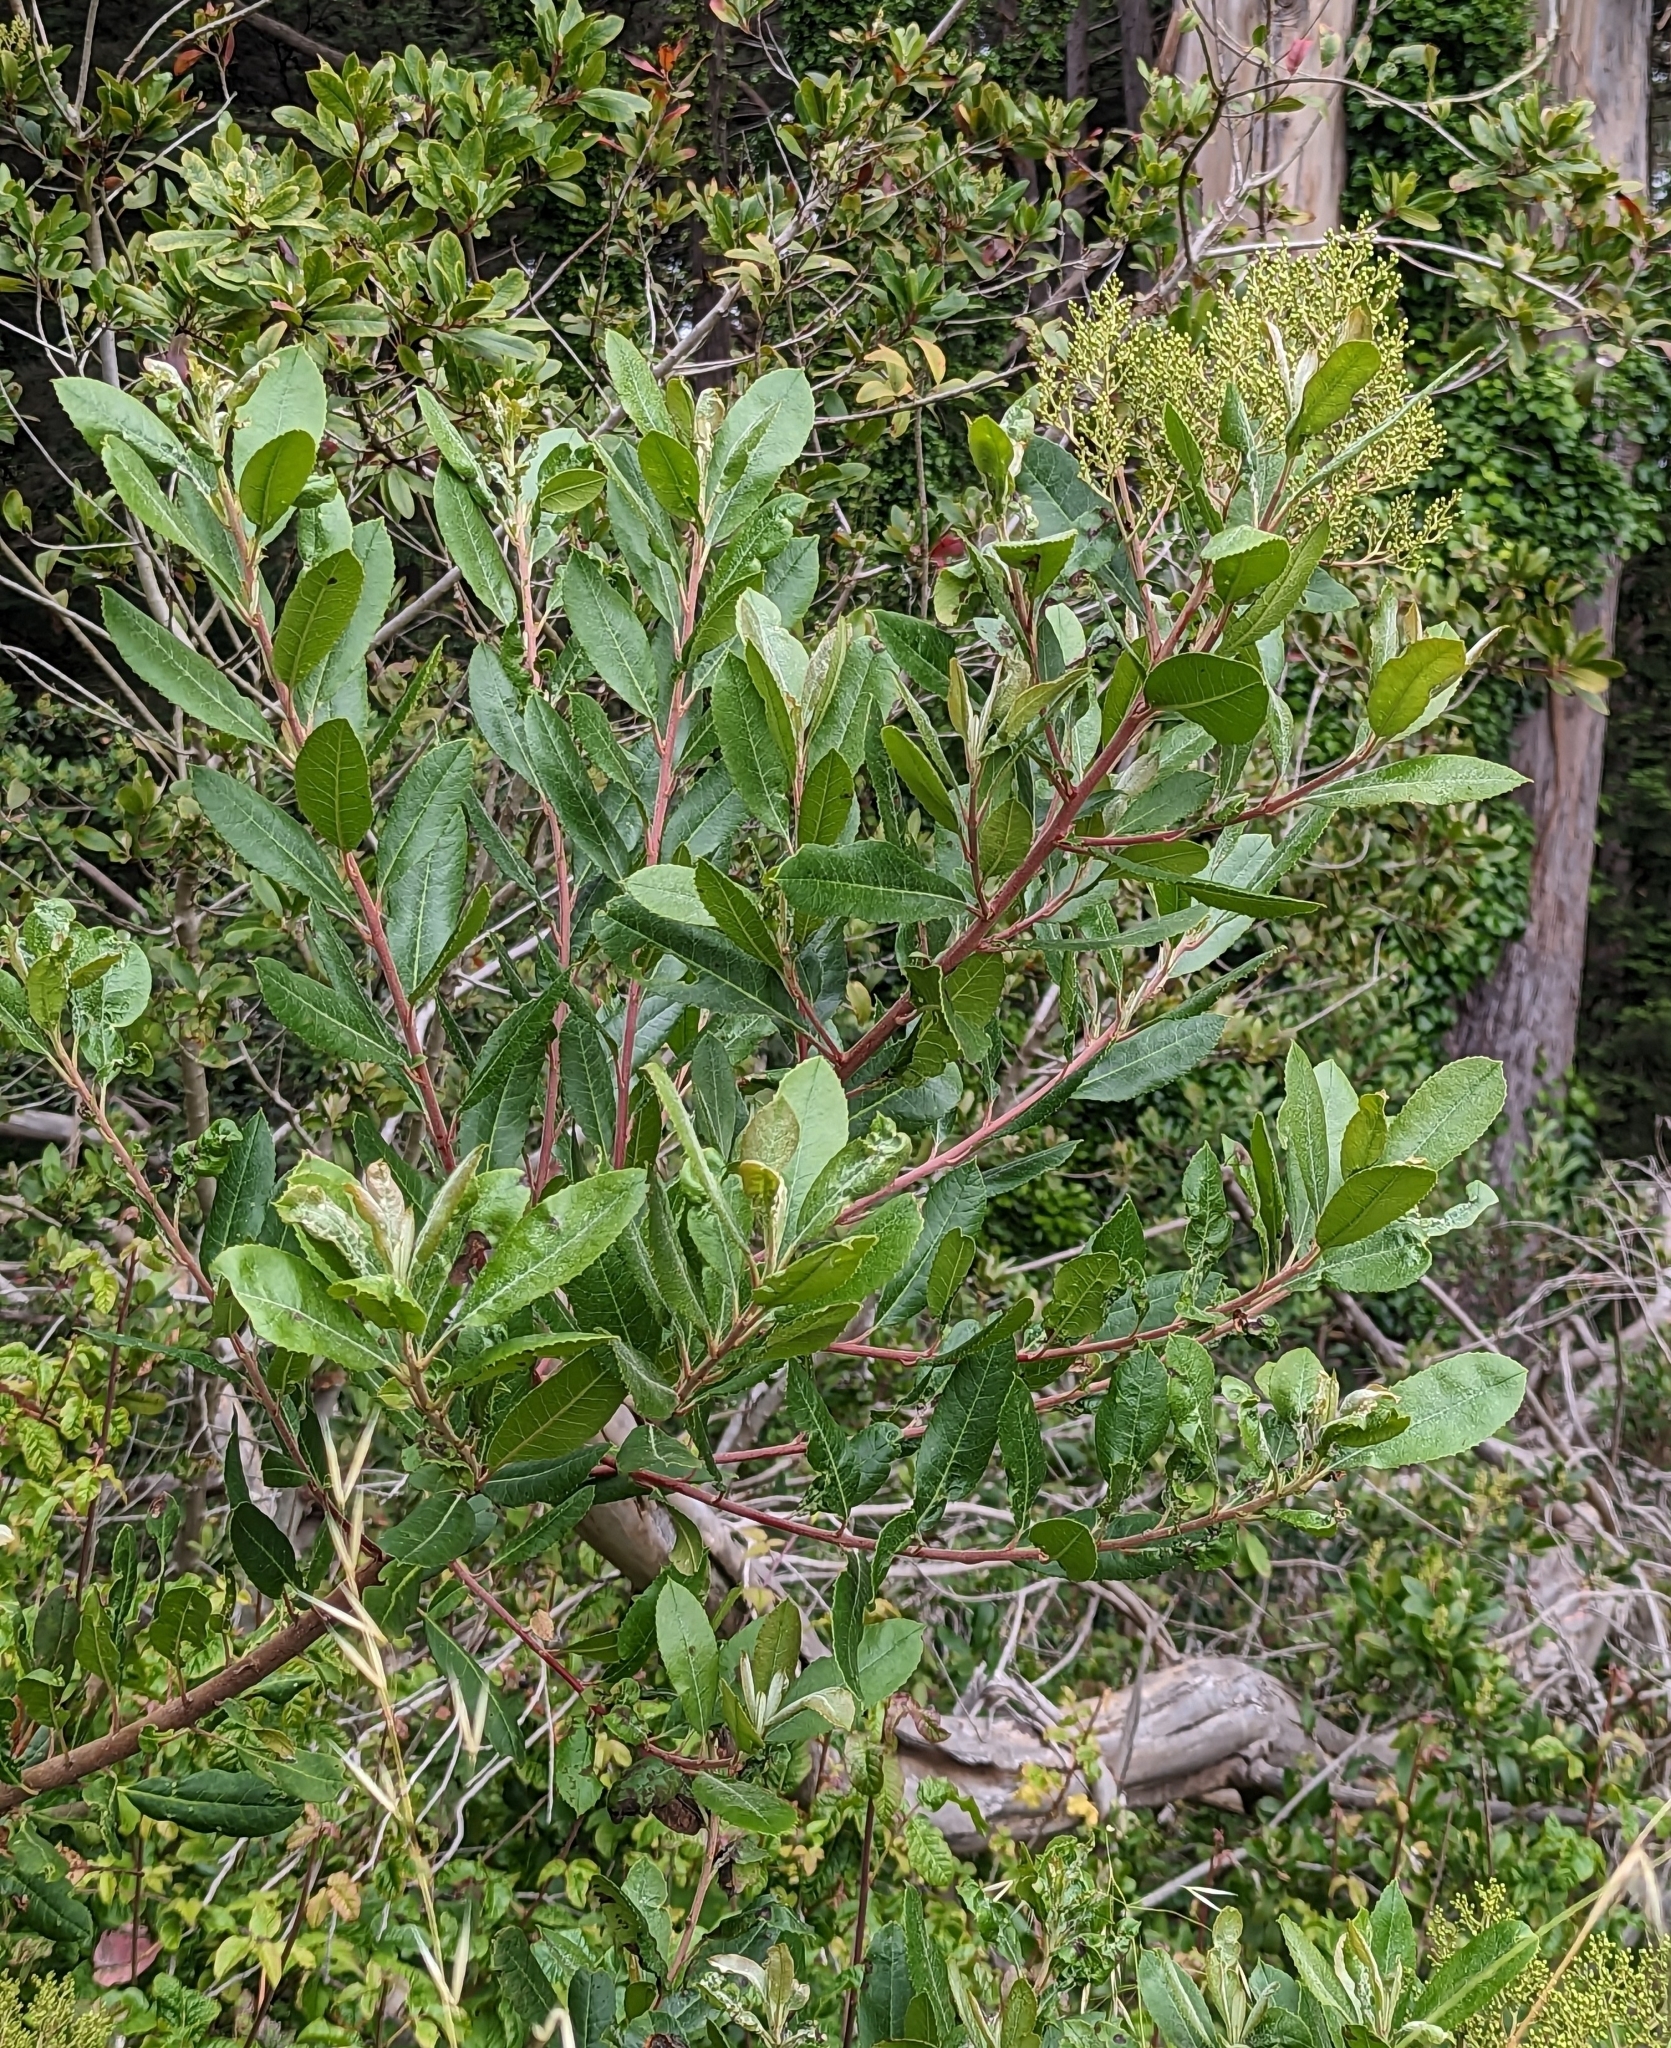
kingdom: Plantae
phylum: Tracheophyta
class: Magnoliopsida
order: Rosales
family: Rosaceae
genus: Heteromeles
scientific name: Heteromeles arbutifolia
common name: California-holly
